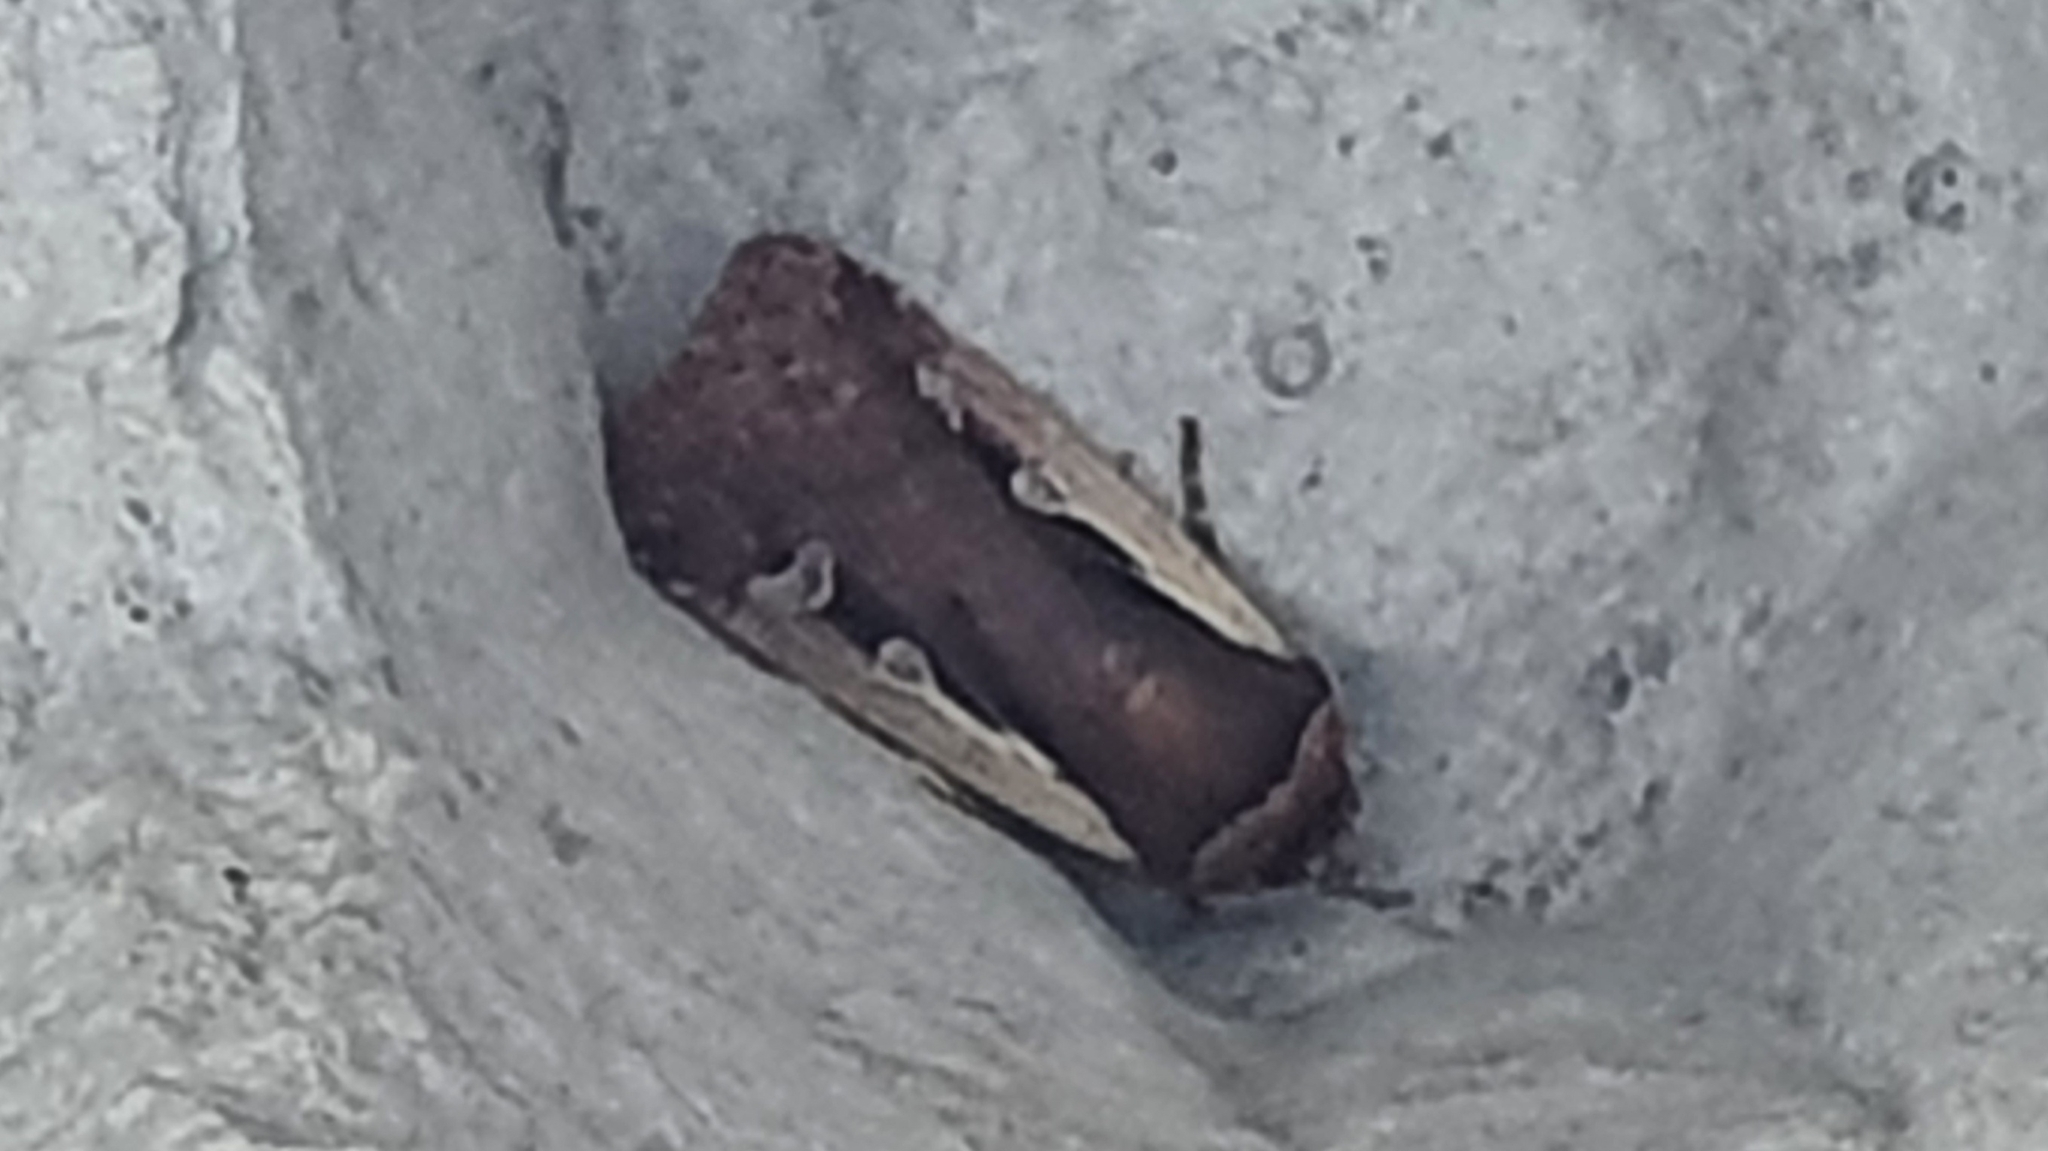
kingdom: Animalia
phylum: Arthropoda
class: Insecta
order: Lepidoptera
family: Noctuidae
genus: Ochropleura
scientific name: Ochropleura plecta
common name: Flame shoulder
